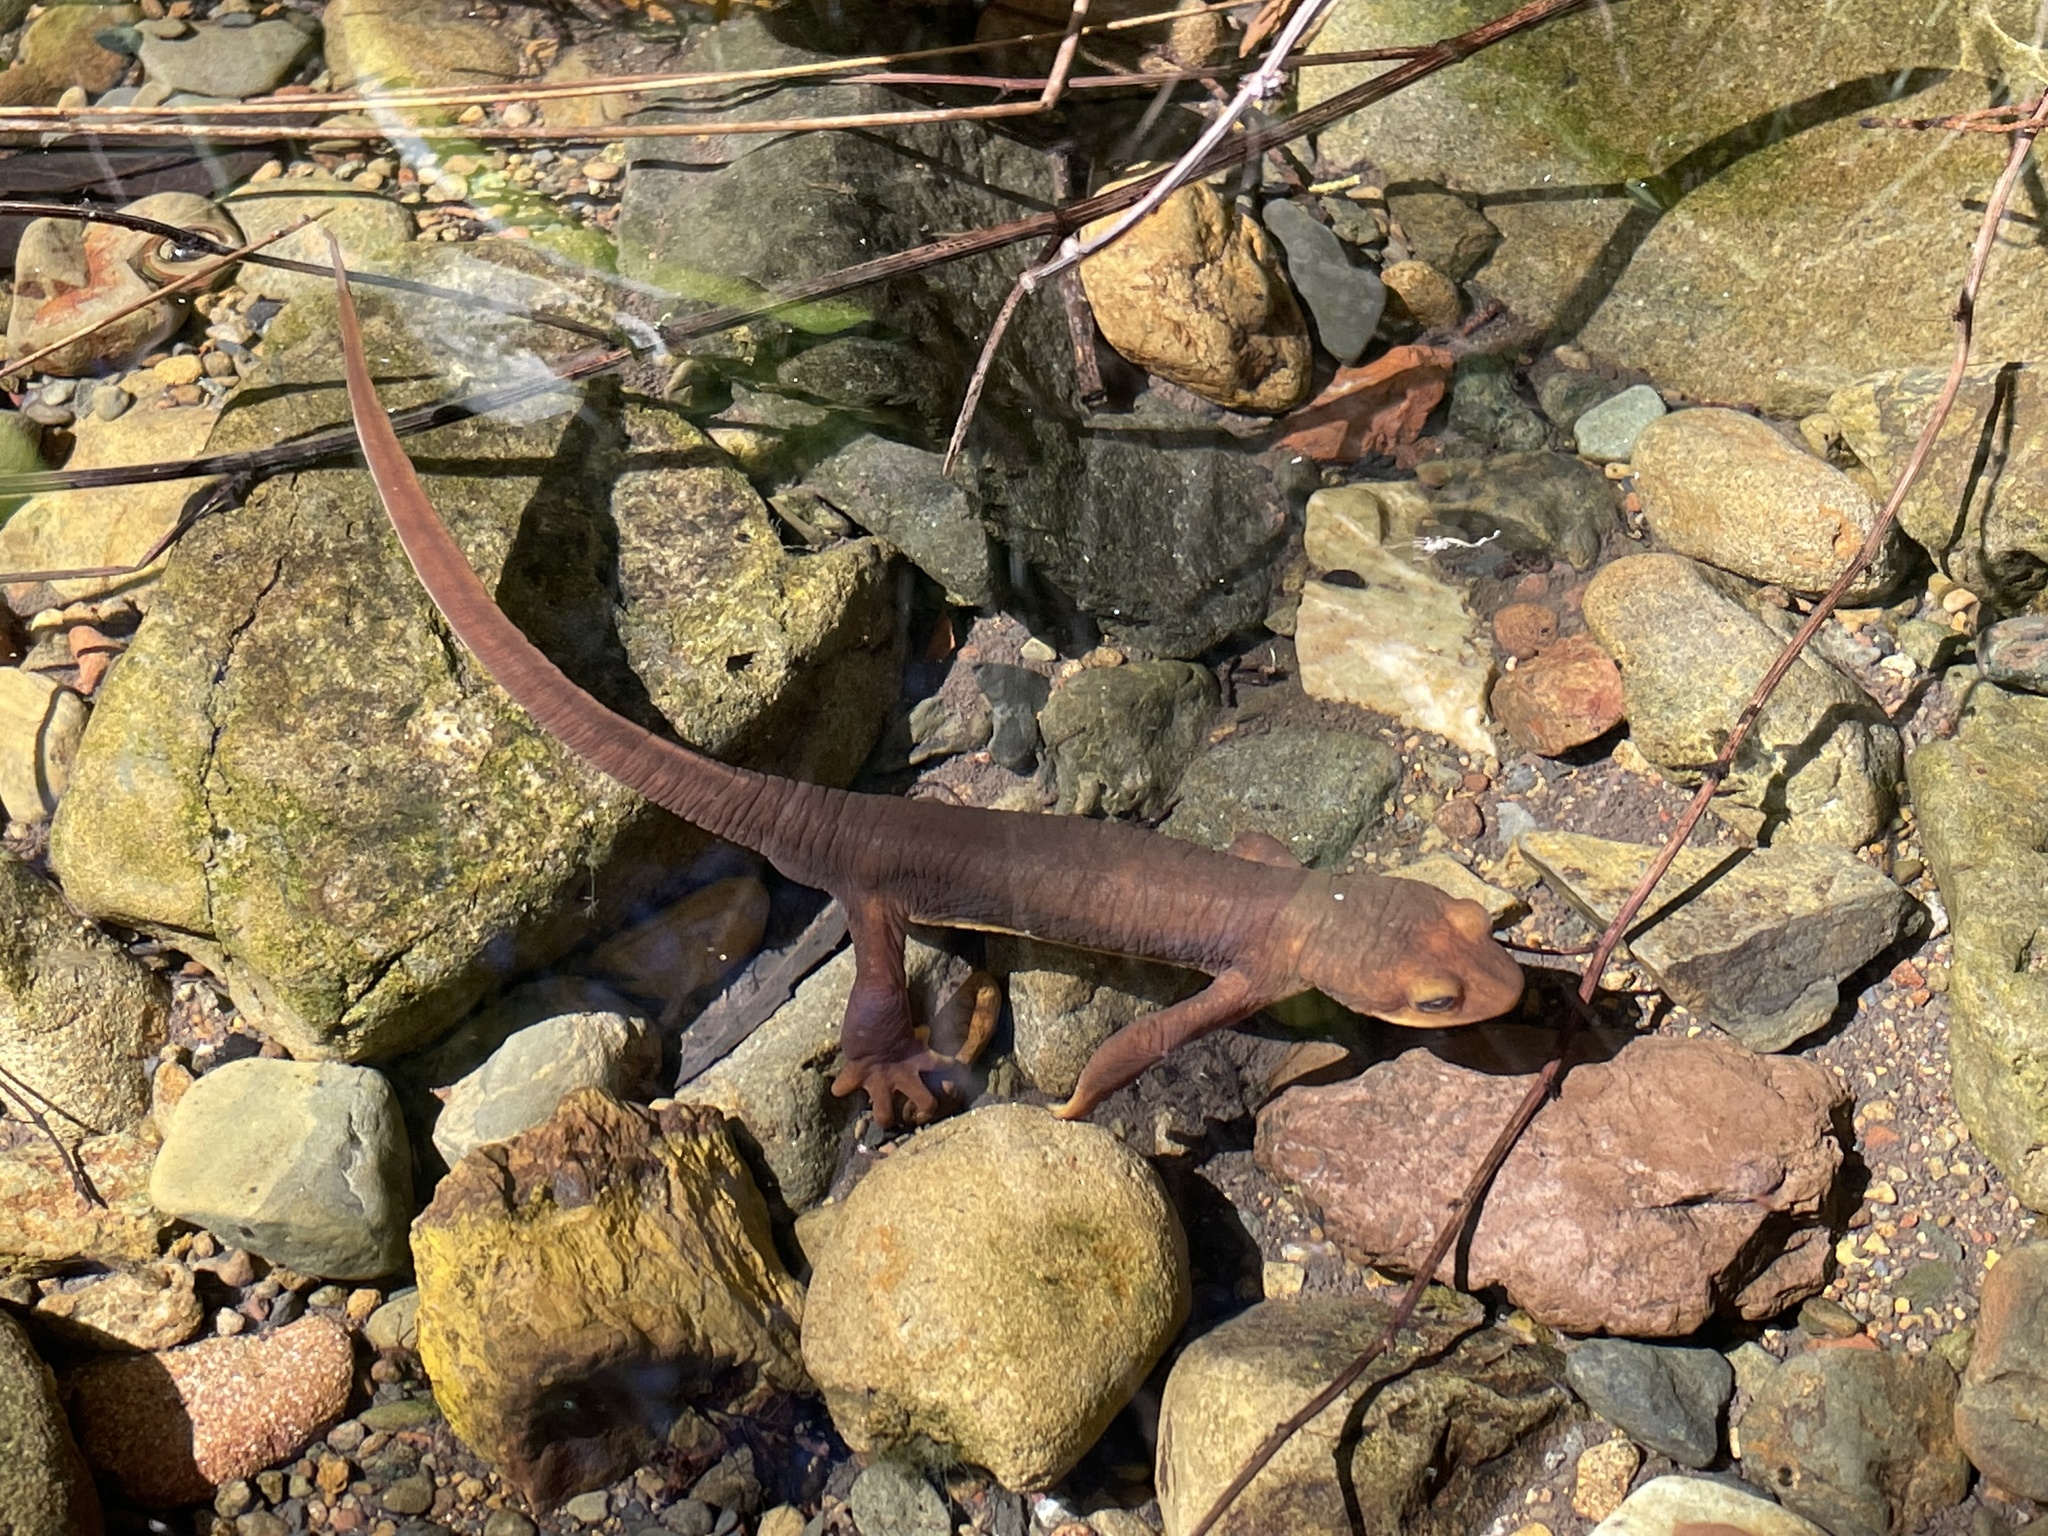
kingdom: Animalia
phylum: Chordata
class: Amphibia
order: Caudata
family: Salamandridae
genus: Taricha
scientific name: Taricha torosa
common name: California newt
